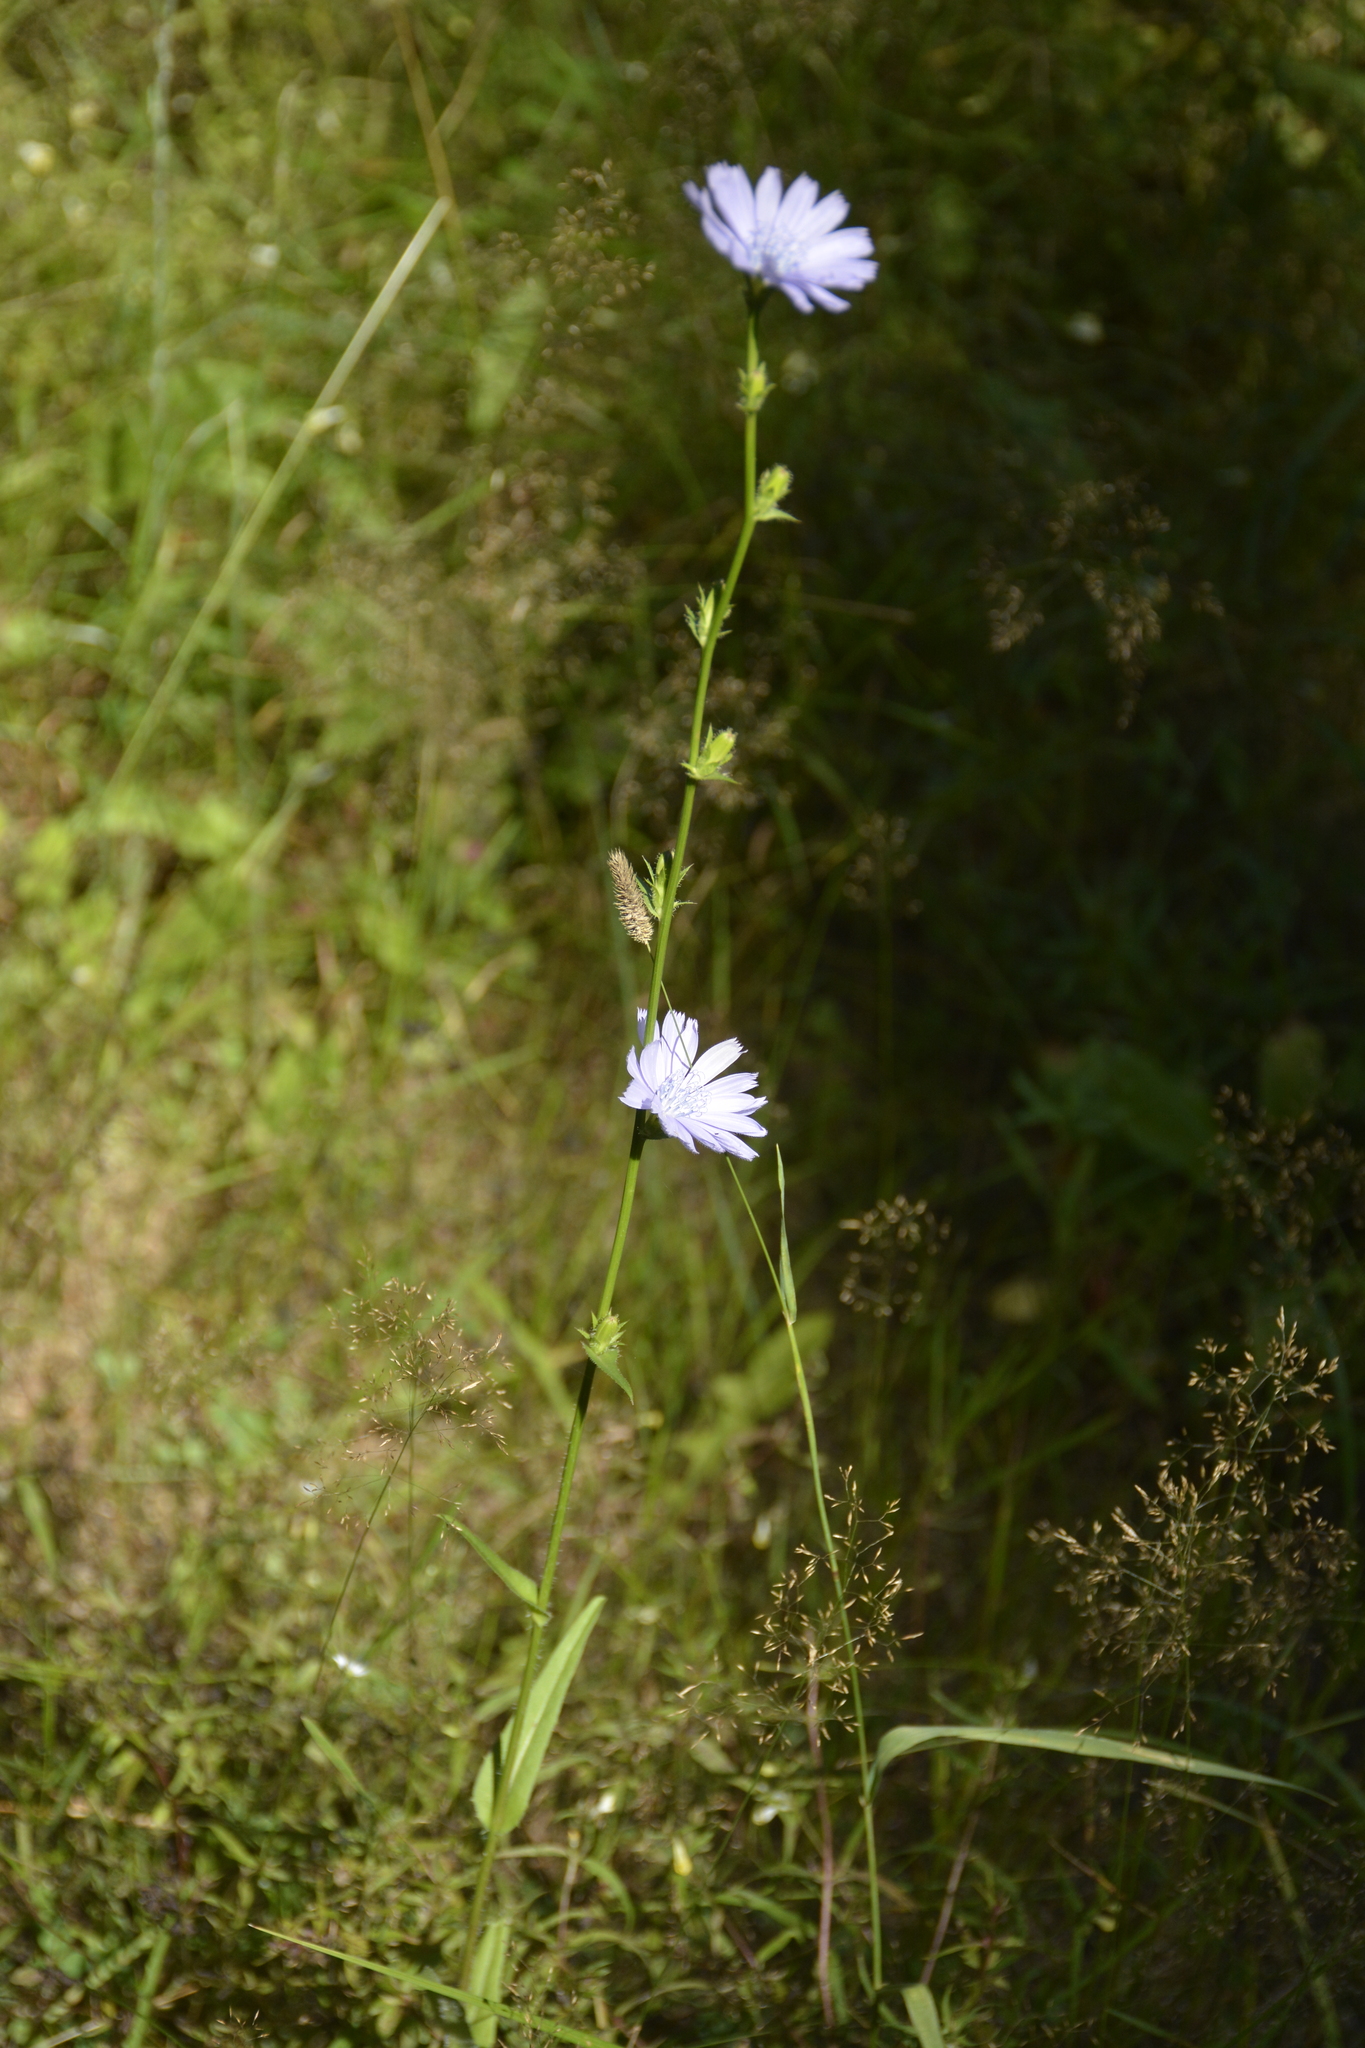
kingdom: Plantae
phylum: Tracheophyta
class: Magnoliopsida
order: Asterales
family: Asteraceae
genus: Cichorium
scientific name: Cichorium intybus
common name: Chicory
